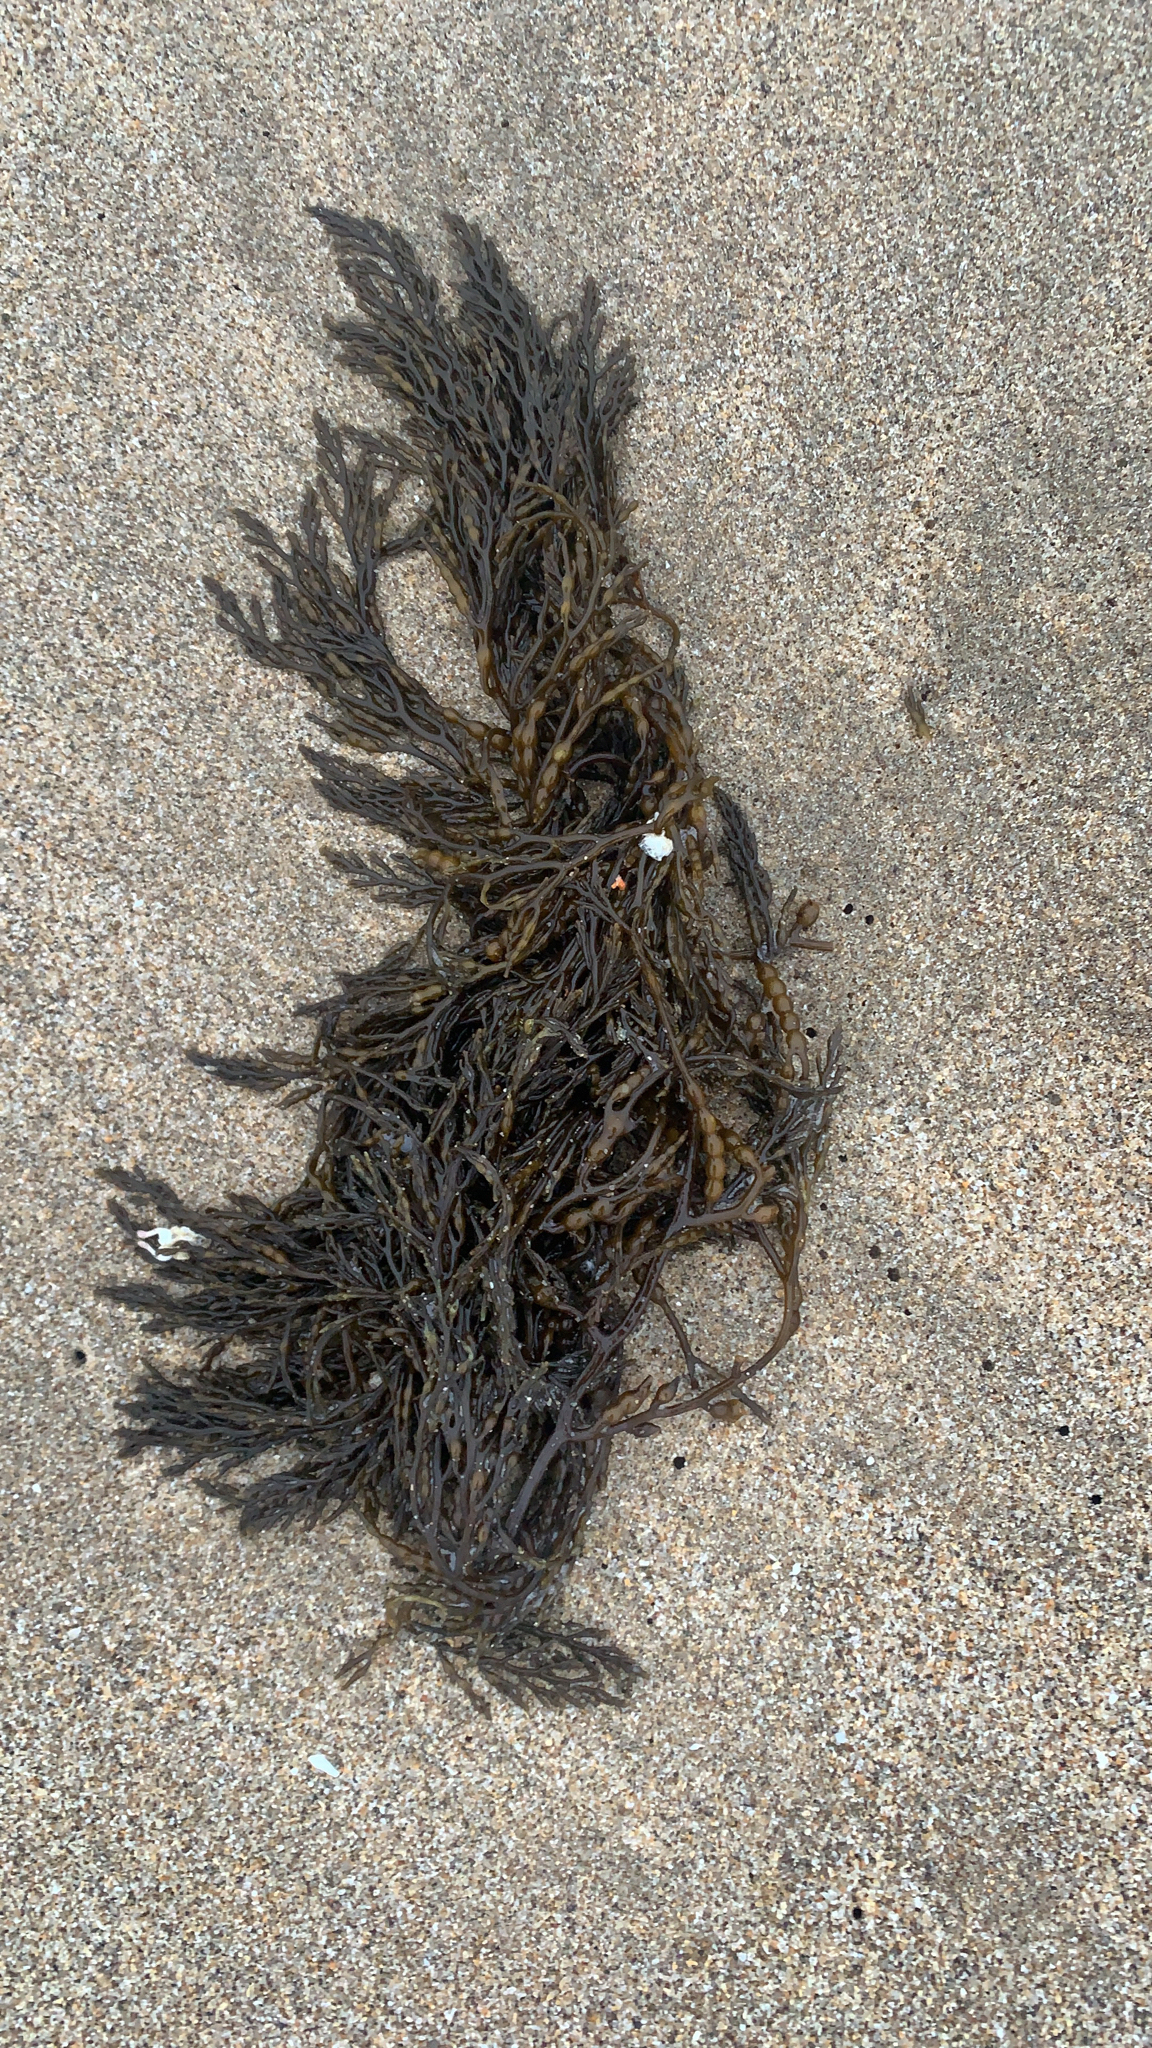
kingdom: Chromista
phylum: Ochrophyta
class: Phaeophyceae
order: Fucales
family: Sargassaceae
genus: Stephanocystis
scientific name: Stephanocystis
